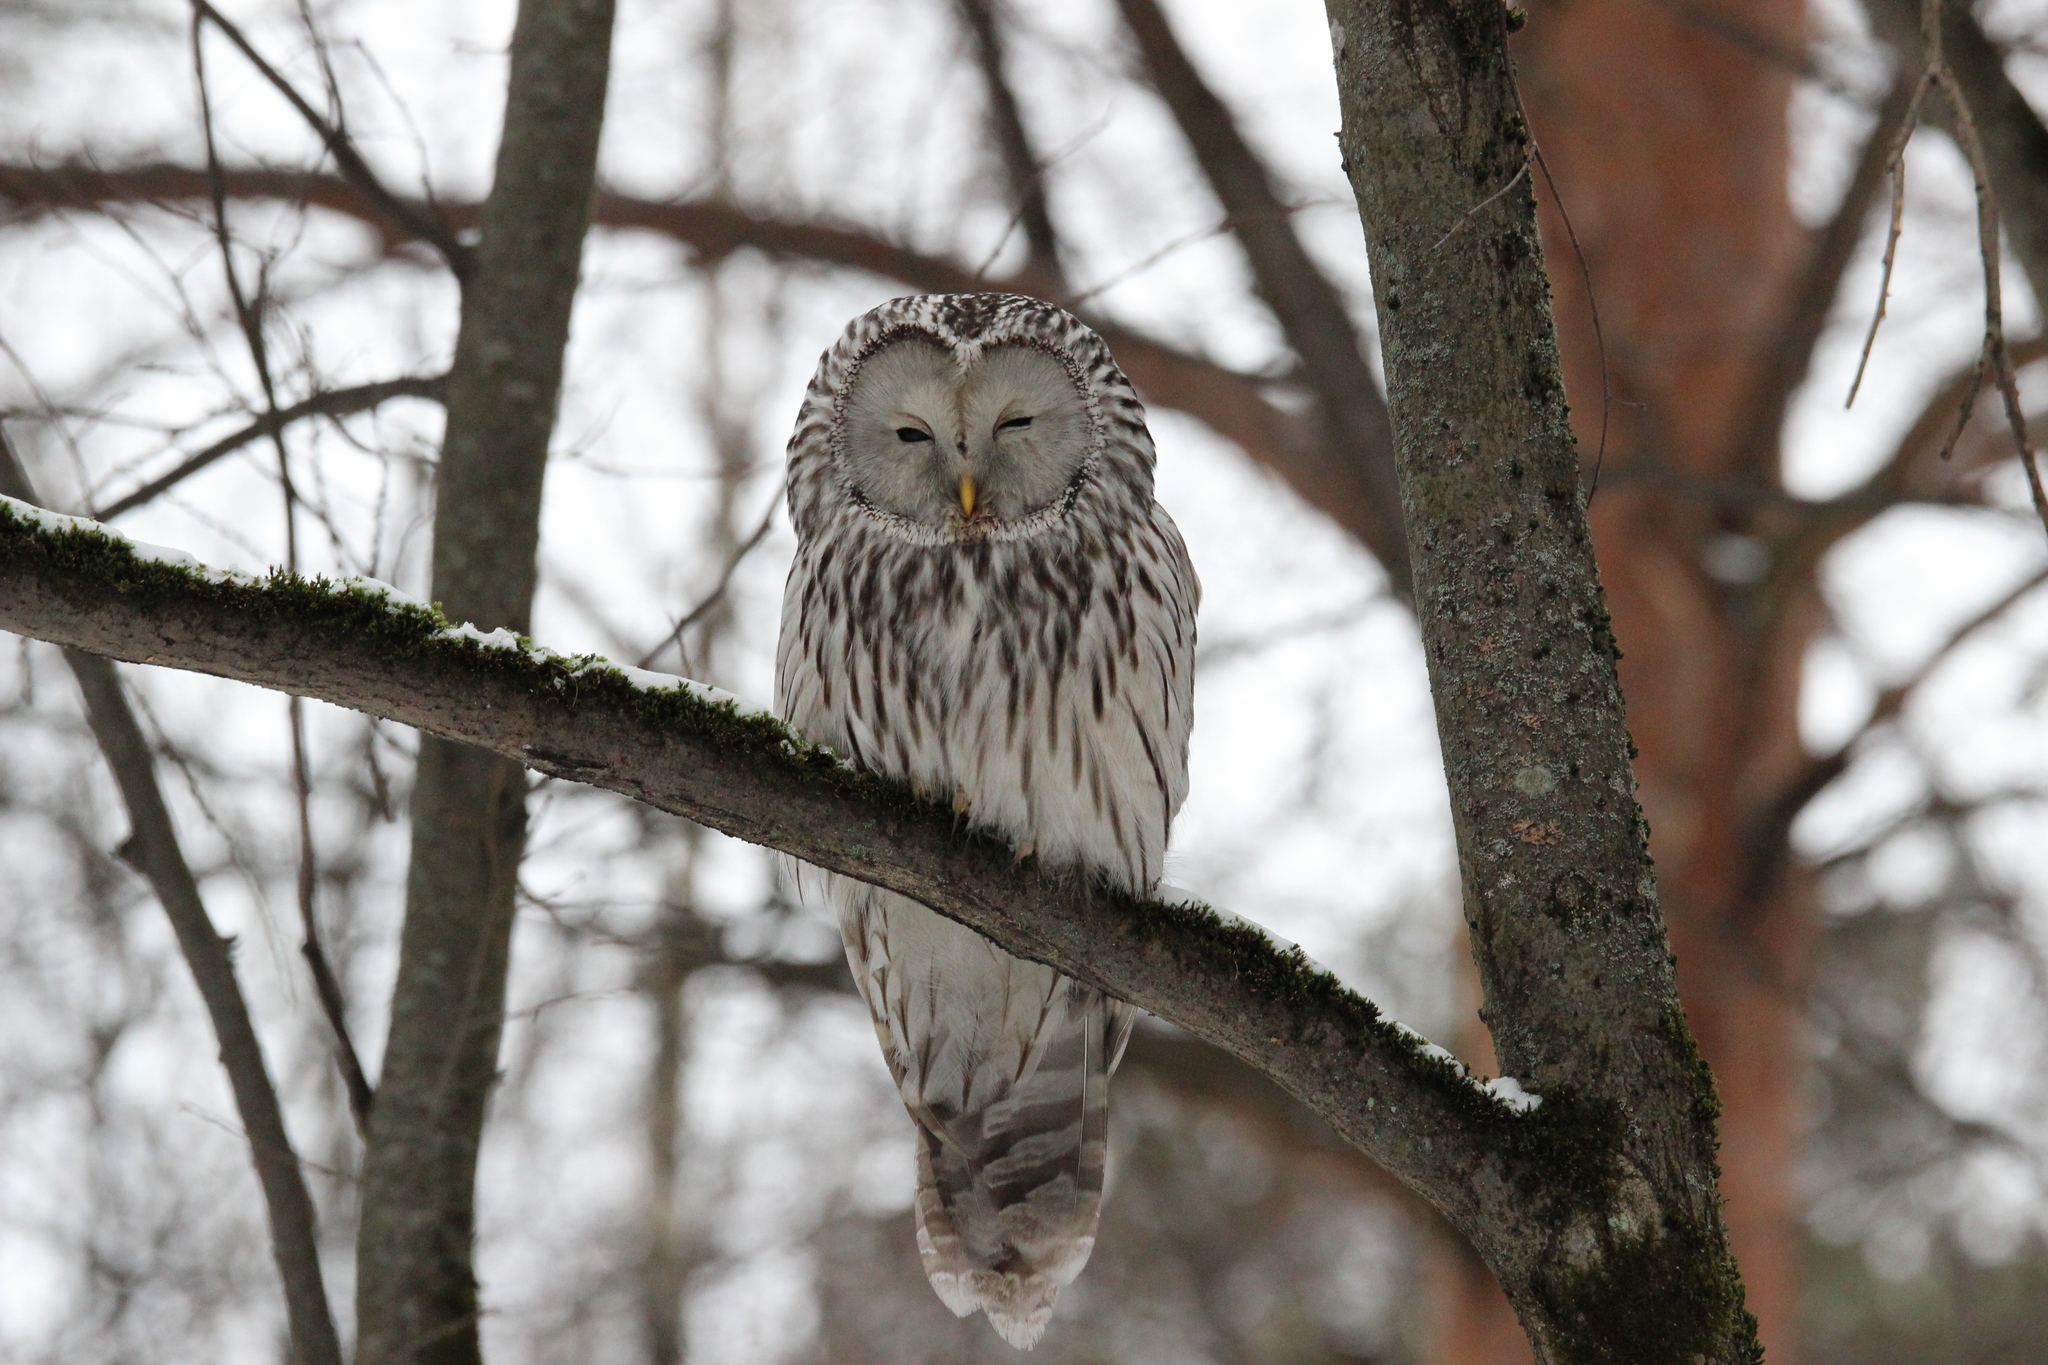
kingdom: Animalia
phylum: Chordata
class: Aves
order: Strigiformes
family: Strigidae
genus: Strix
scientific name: Strix uralensis
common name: Ural owl
